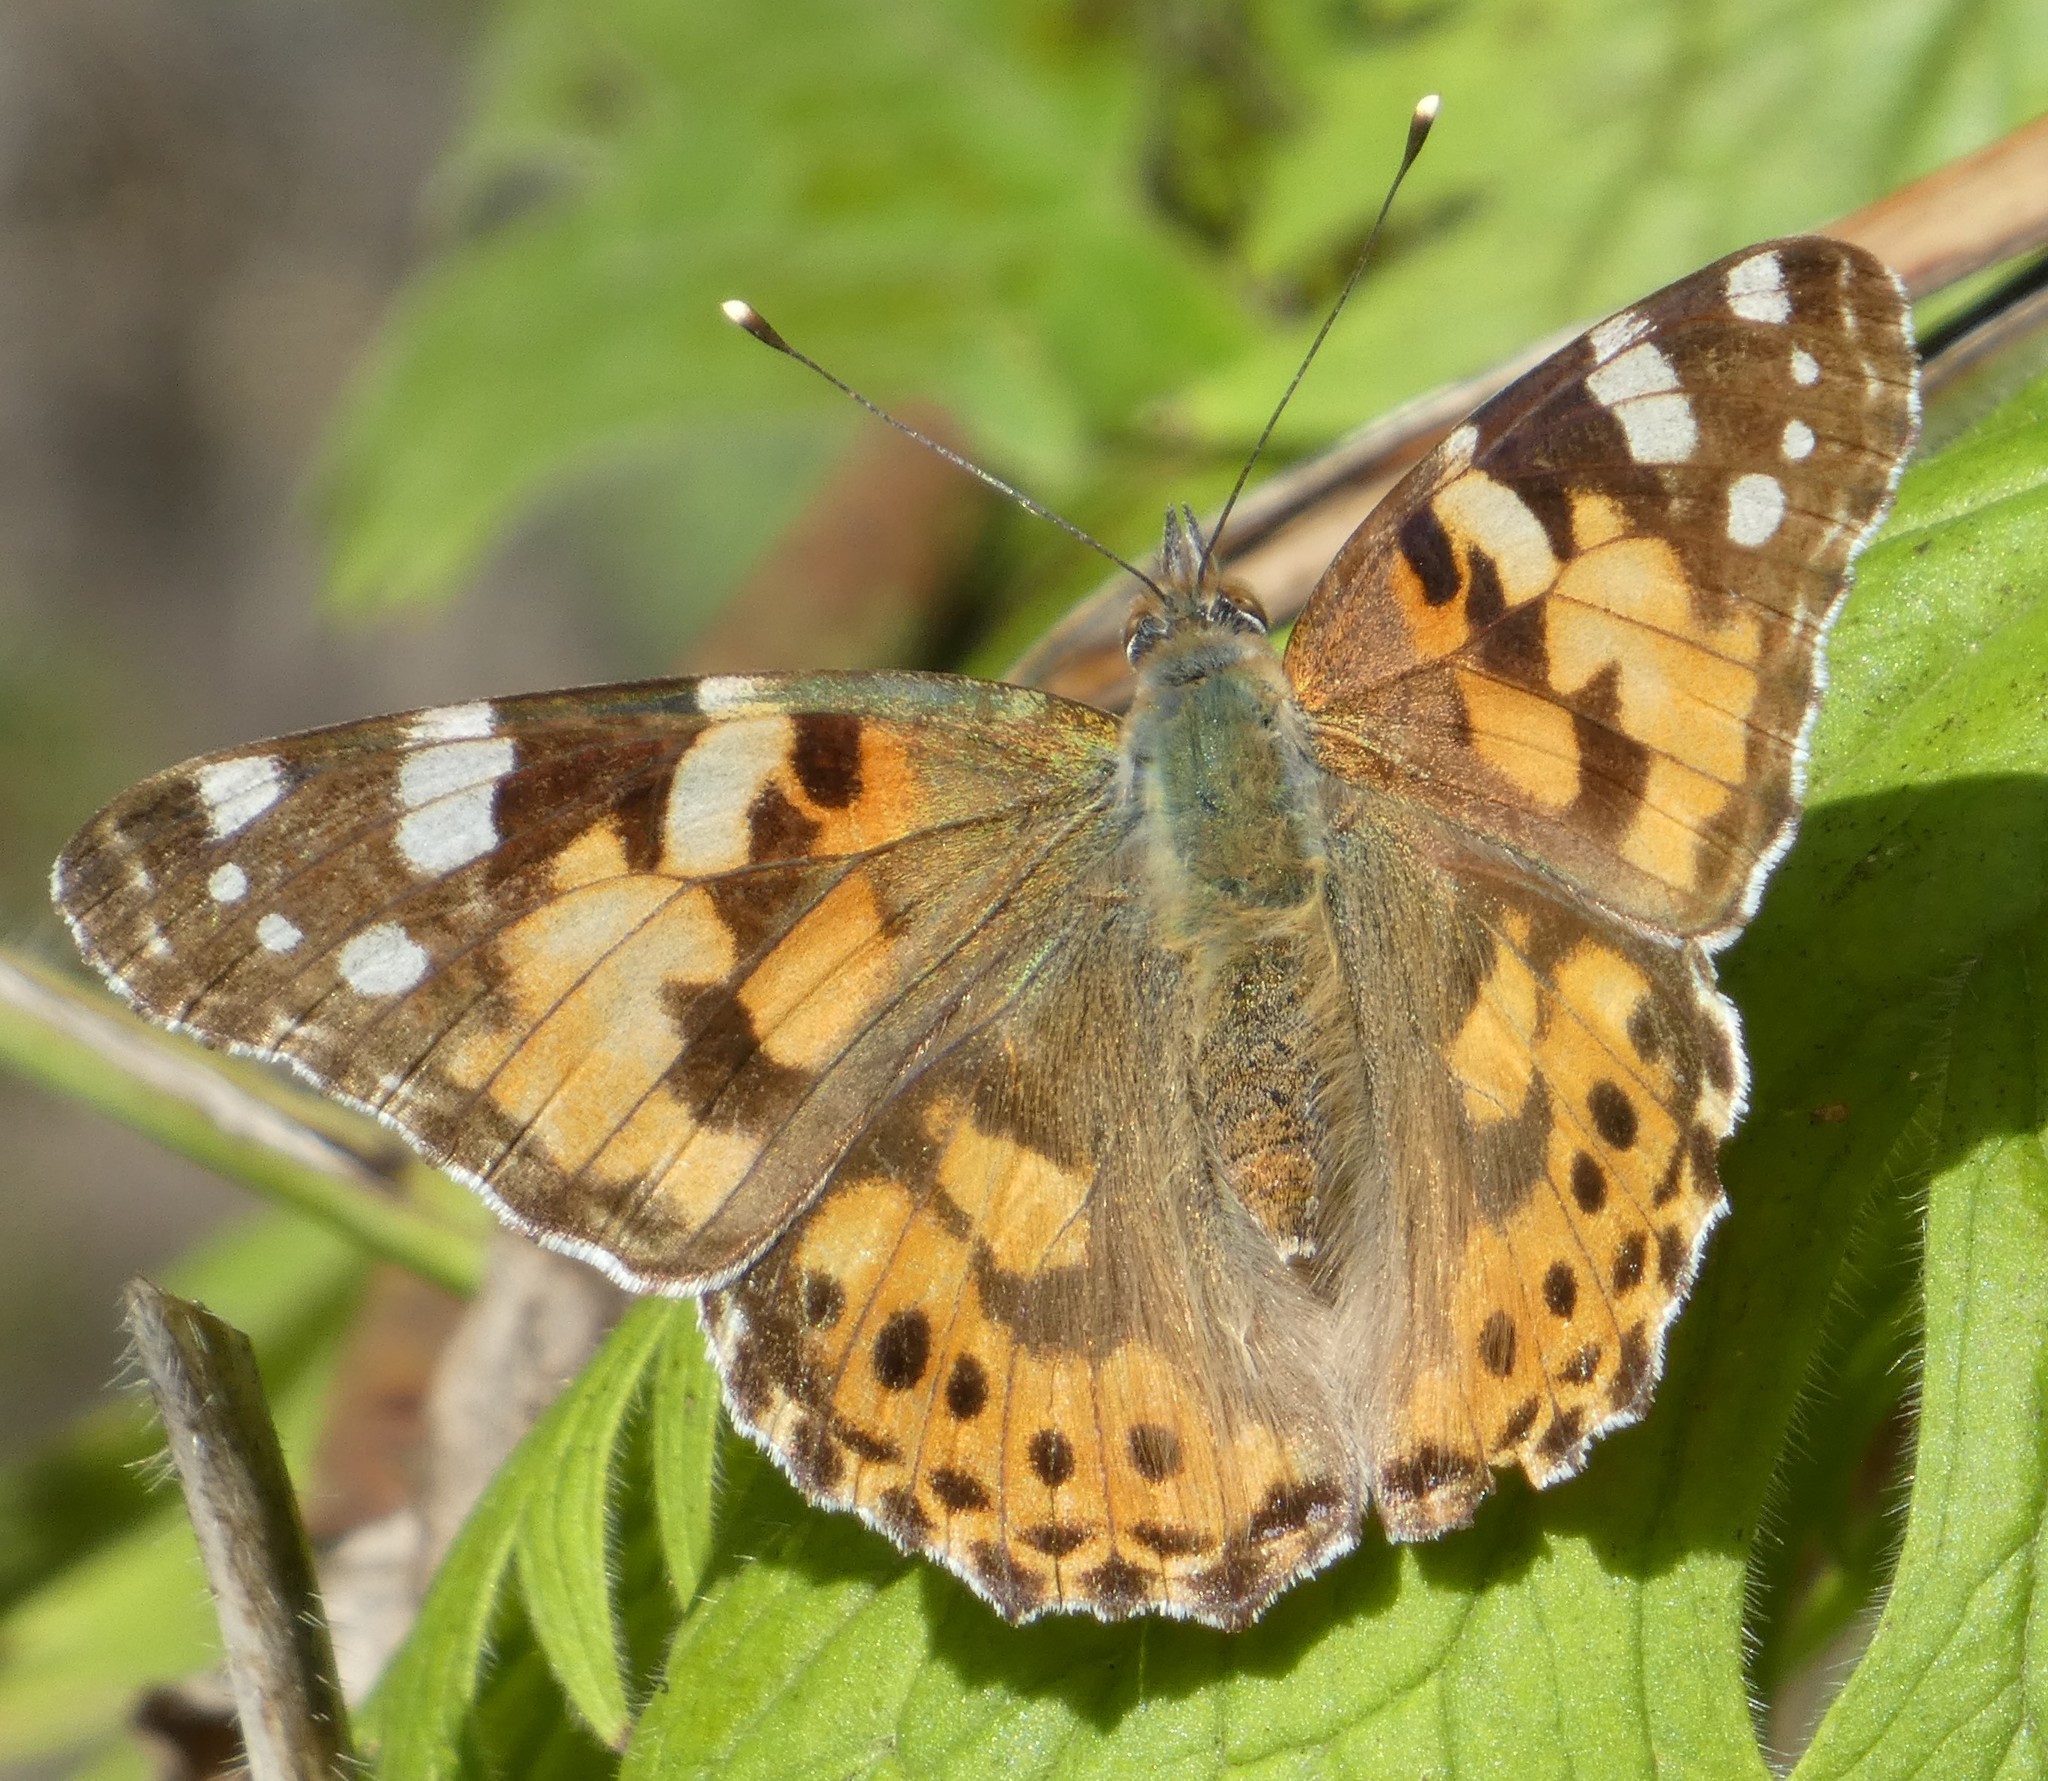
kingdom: Animalia
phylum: Arthropoda
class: Insecta
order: Lepidoptera
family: Nymphalidae
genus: Vanessa
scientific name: Vanessa cardui
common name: Painted lady
